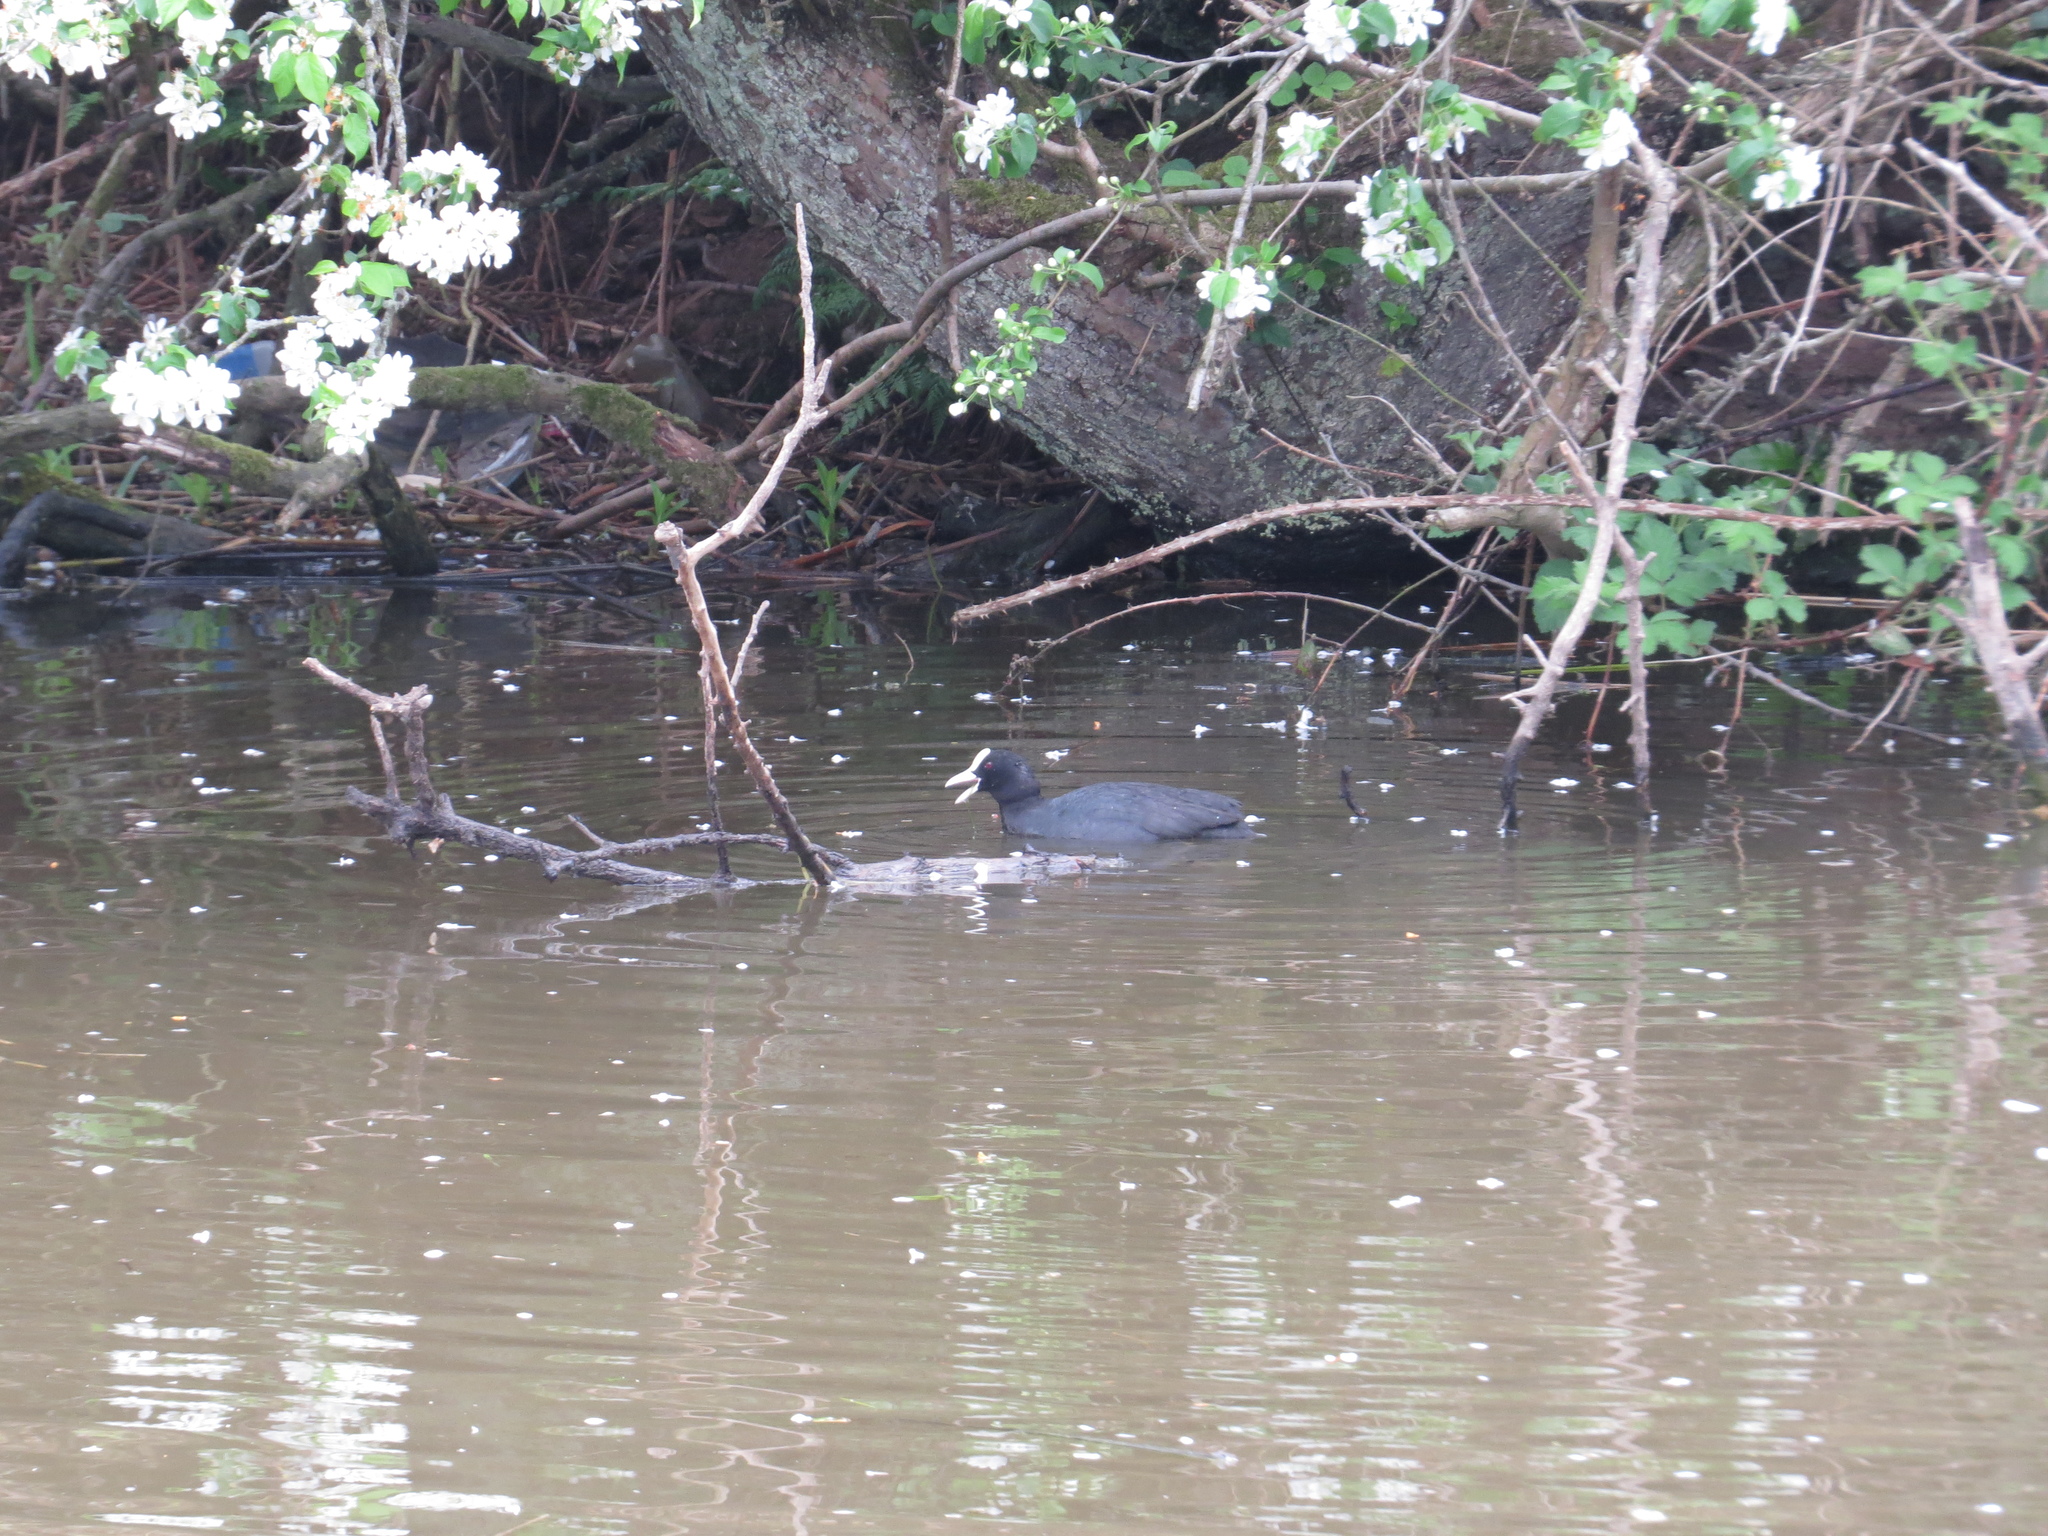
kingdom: Animalia
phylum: Chordata
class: Aves
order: Gruiformes
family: Rallidae
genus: Fulica
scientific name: Fulica atra
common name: Eurasian coot
